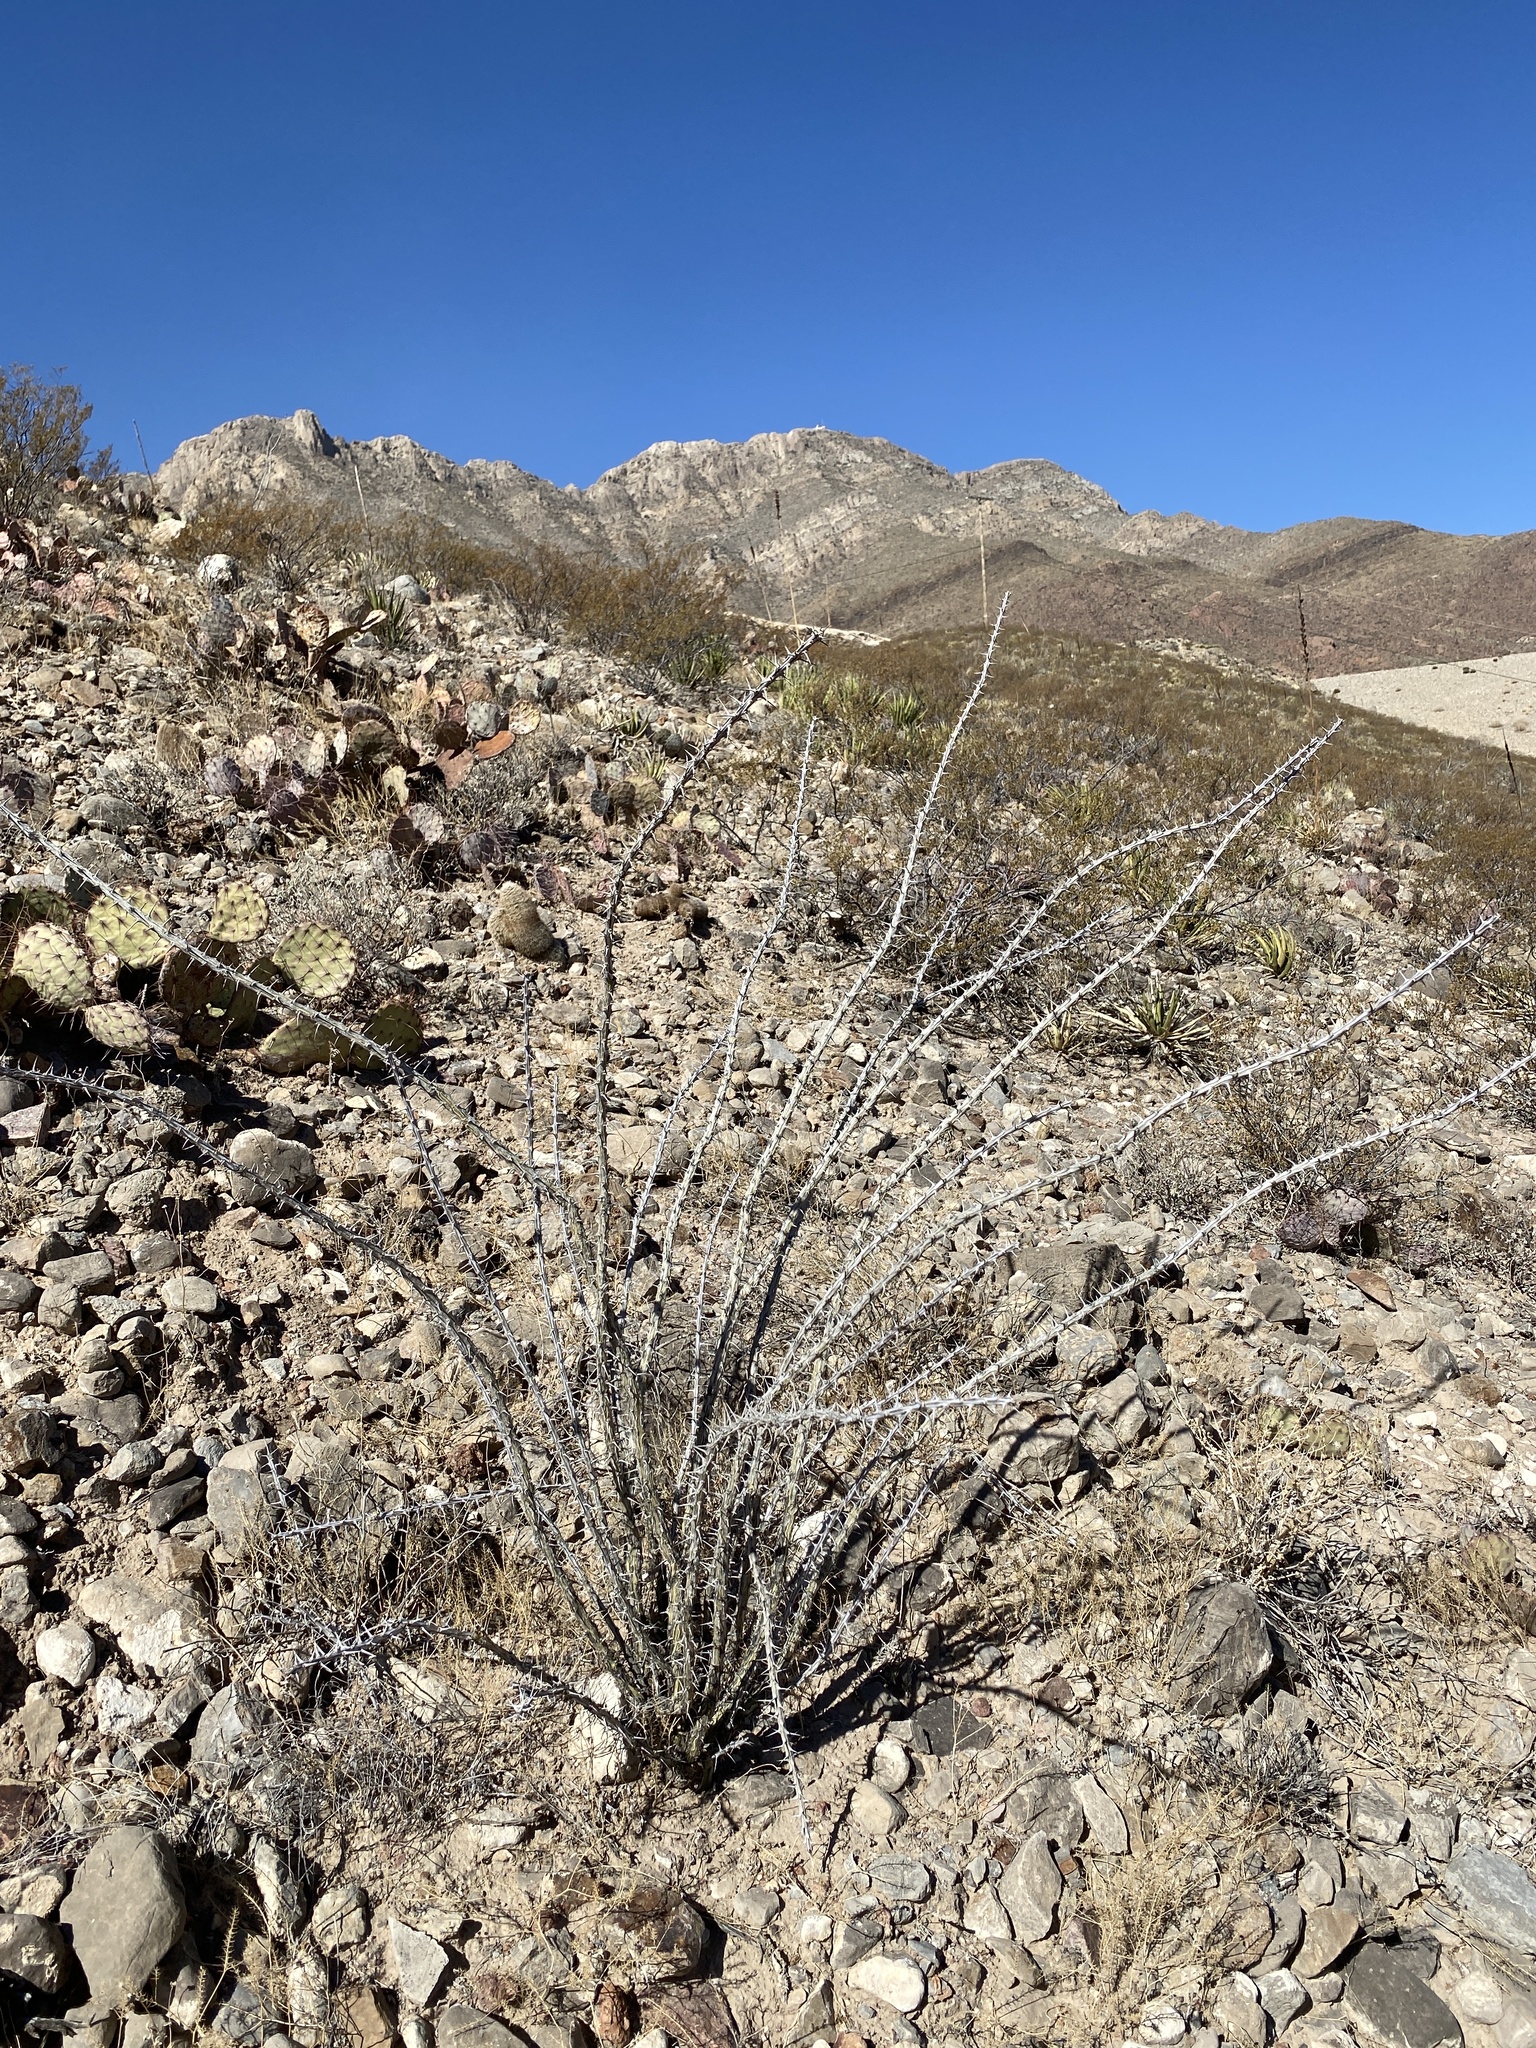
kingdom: Plantae
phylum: Tracheophyta
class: Magnoliopsida
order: Ericales
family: Fouquieriaceae
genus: Fouquieria
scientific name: Fouquieria splendens
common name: Vine-cactus
